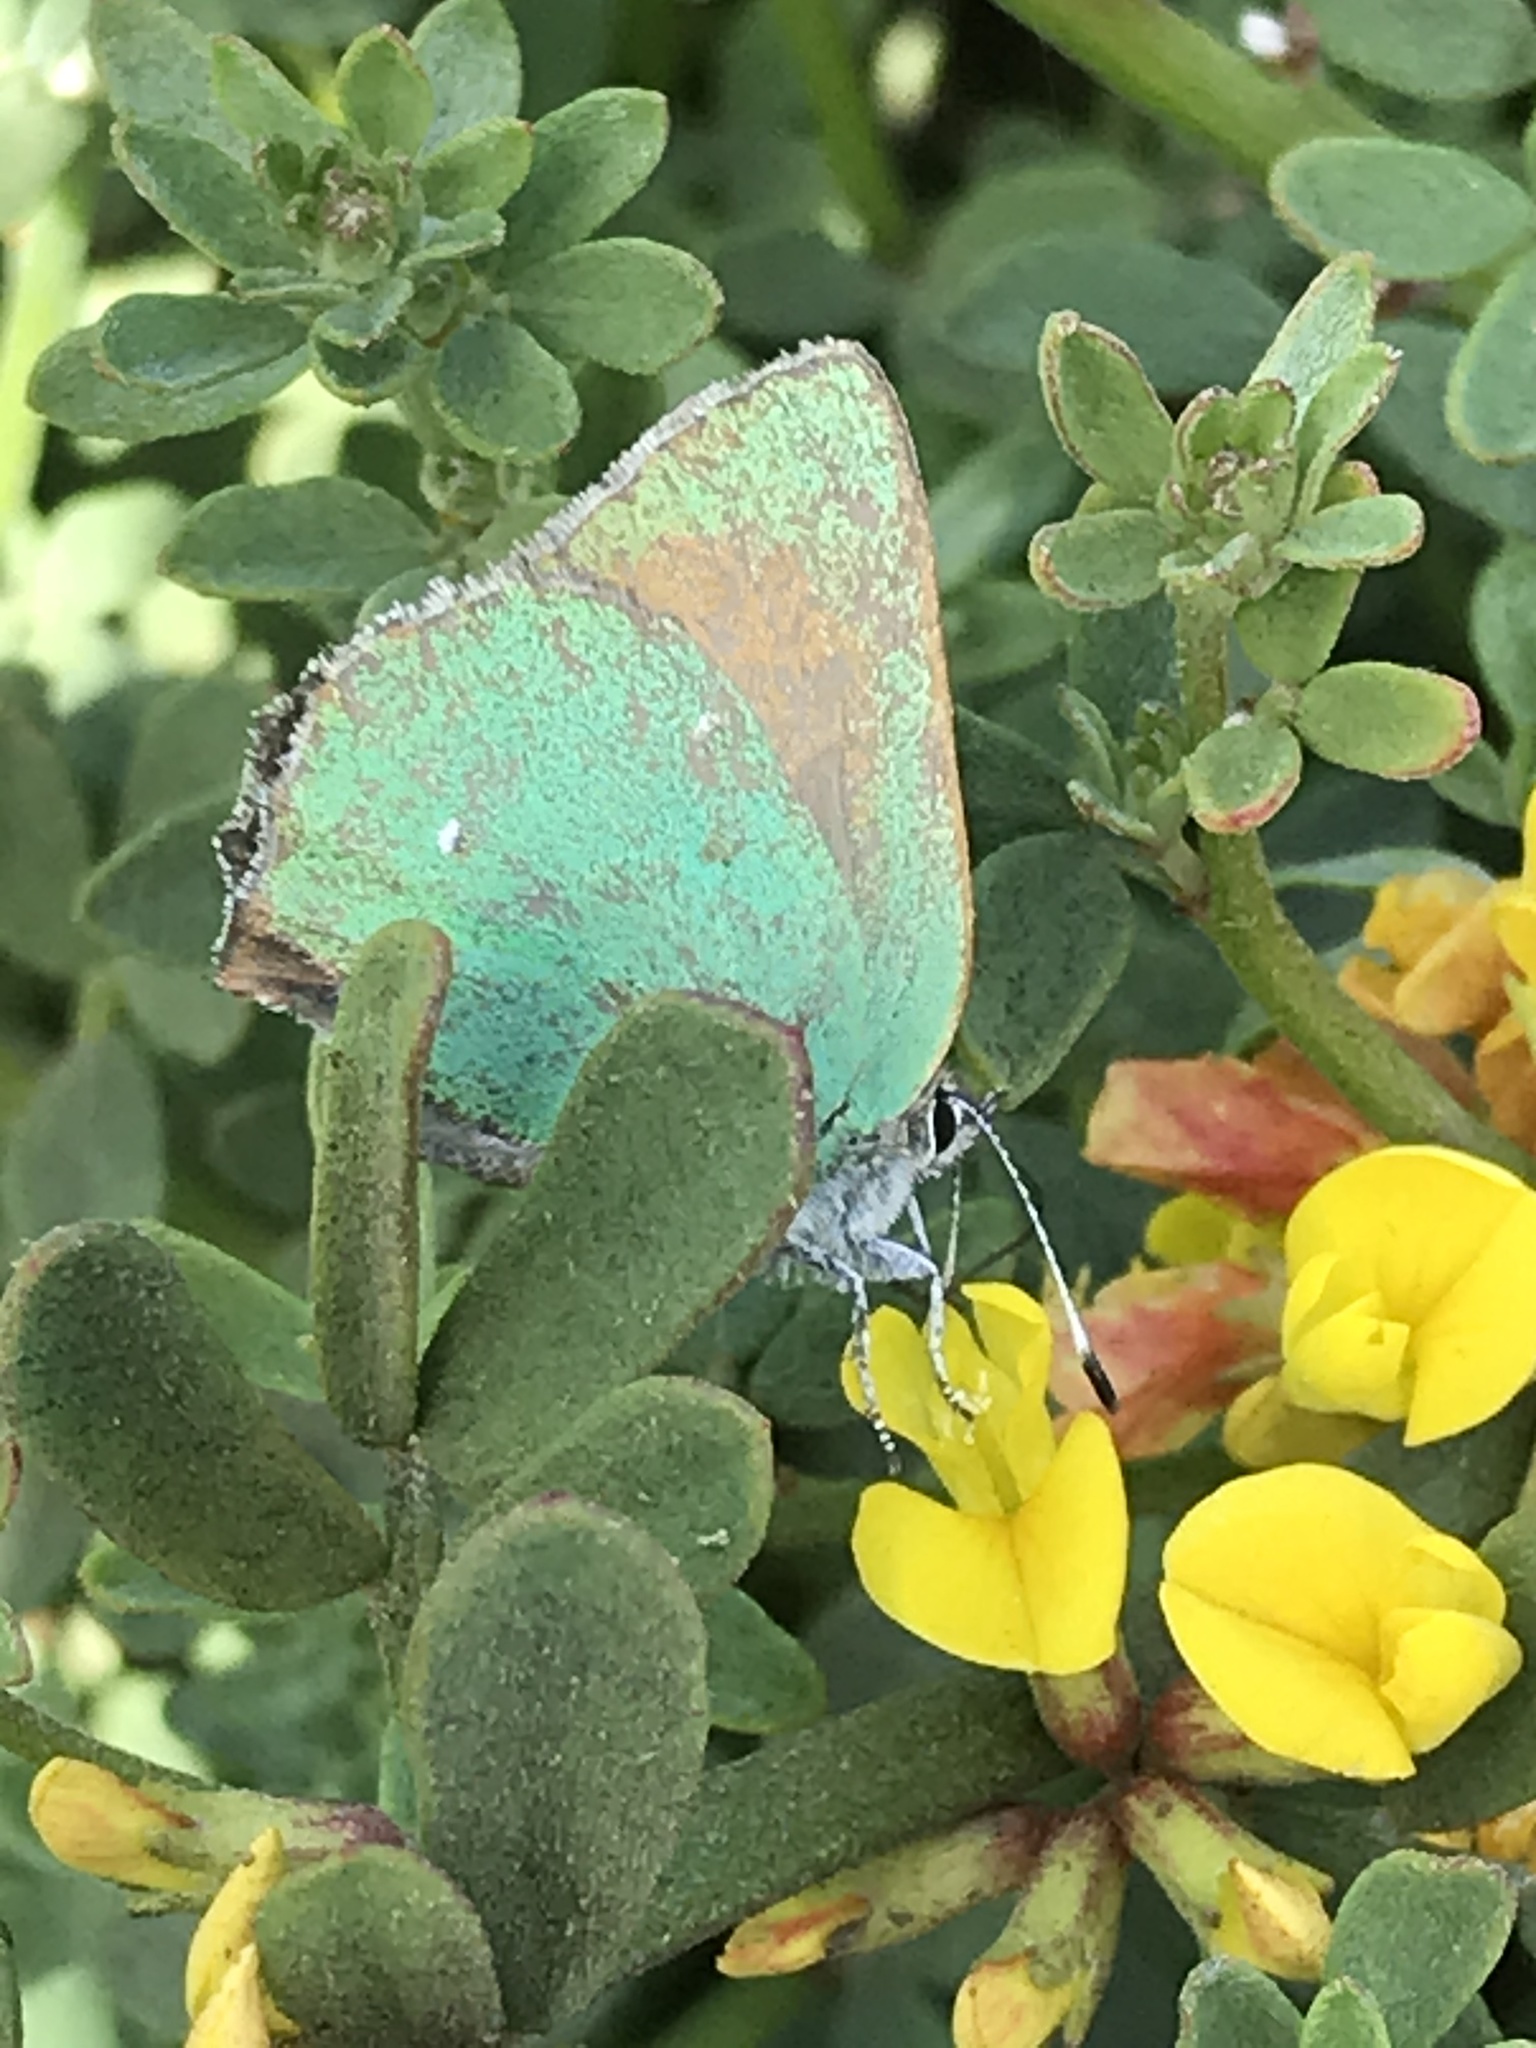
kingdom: Animalia
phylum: Arthropoda
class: Insecta
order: Lepidoptera
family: Lycaenidae
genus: Callophrys
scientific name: Callophrys dumetorum
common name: Bramble hairstreak
